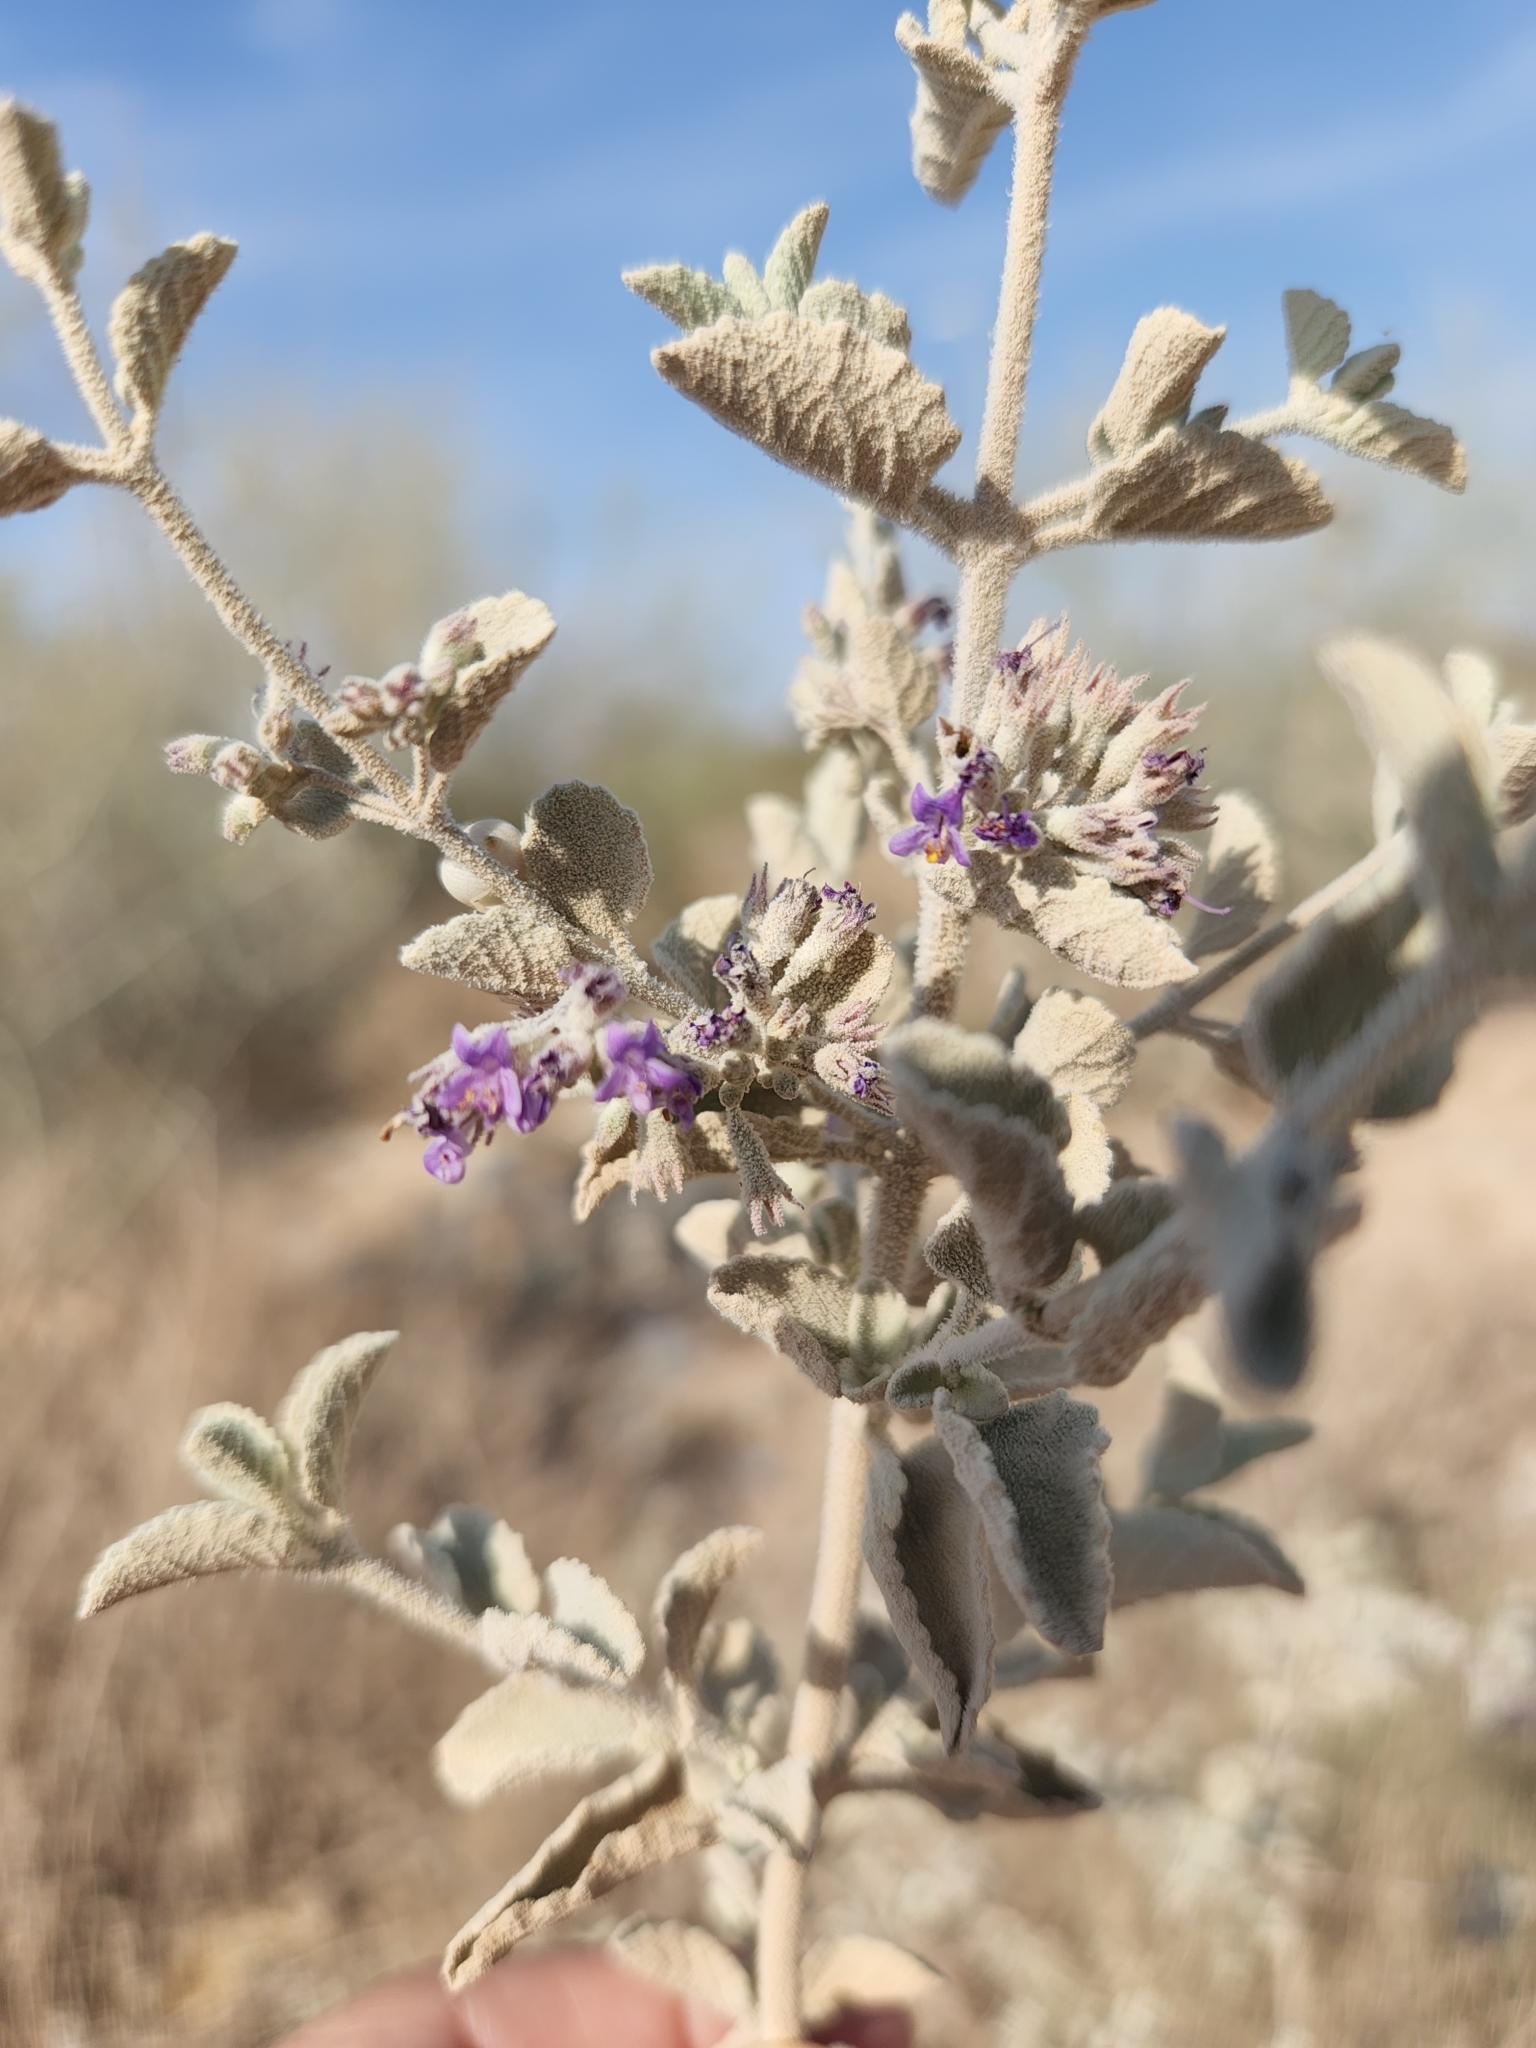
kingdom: Plantae
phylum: Tracheophyta
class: Magnoliopsida
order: Lamiales
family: Lamiaceae
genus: Condea
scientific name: Condea emoryi
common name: Chia
